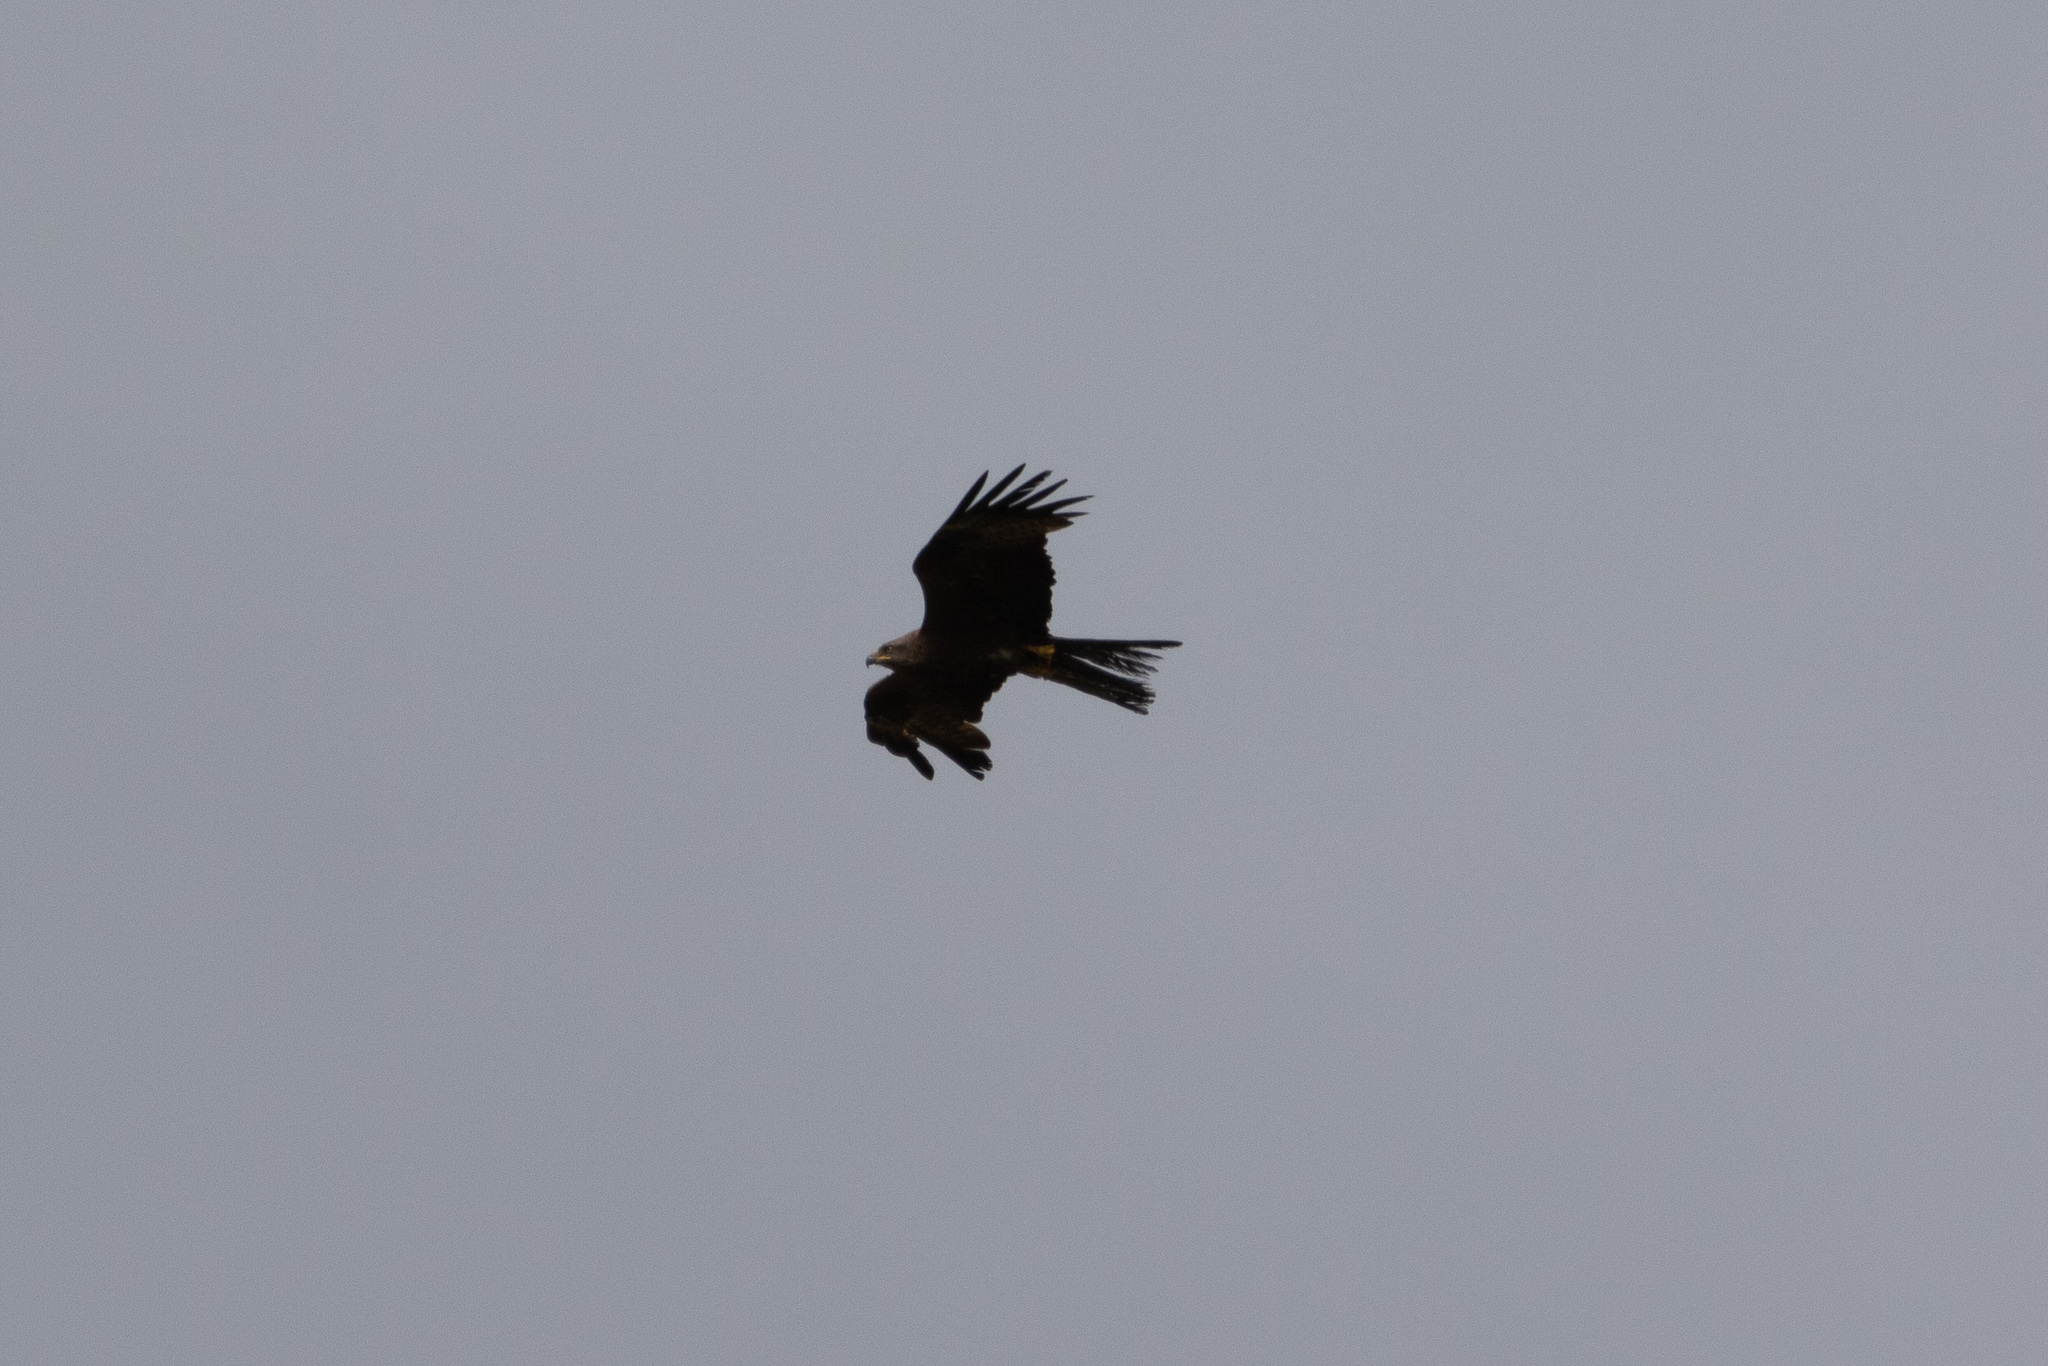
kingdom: Animalia
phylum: Chordata
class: Aves
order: Accipitriformes
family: Accipitridae
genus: Milvus
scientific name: Milvus migrans
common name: Black kite
